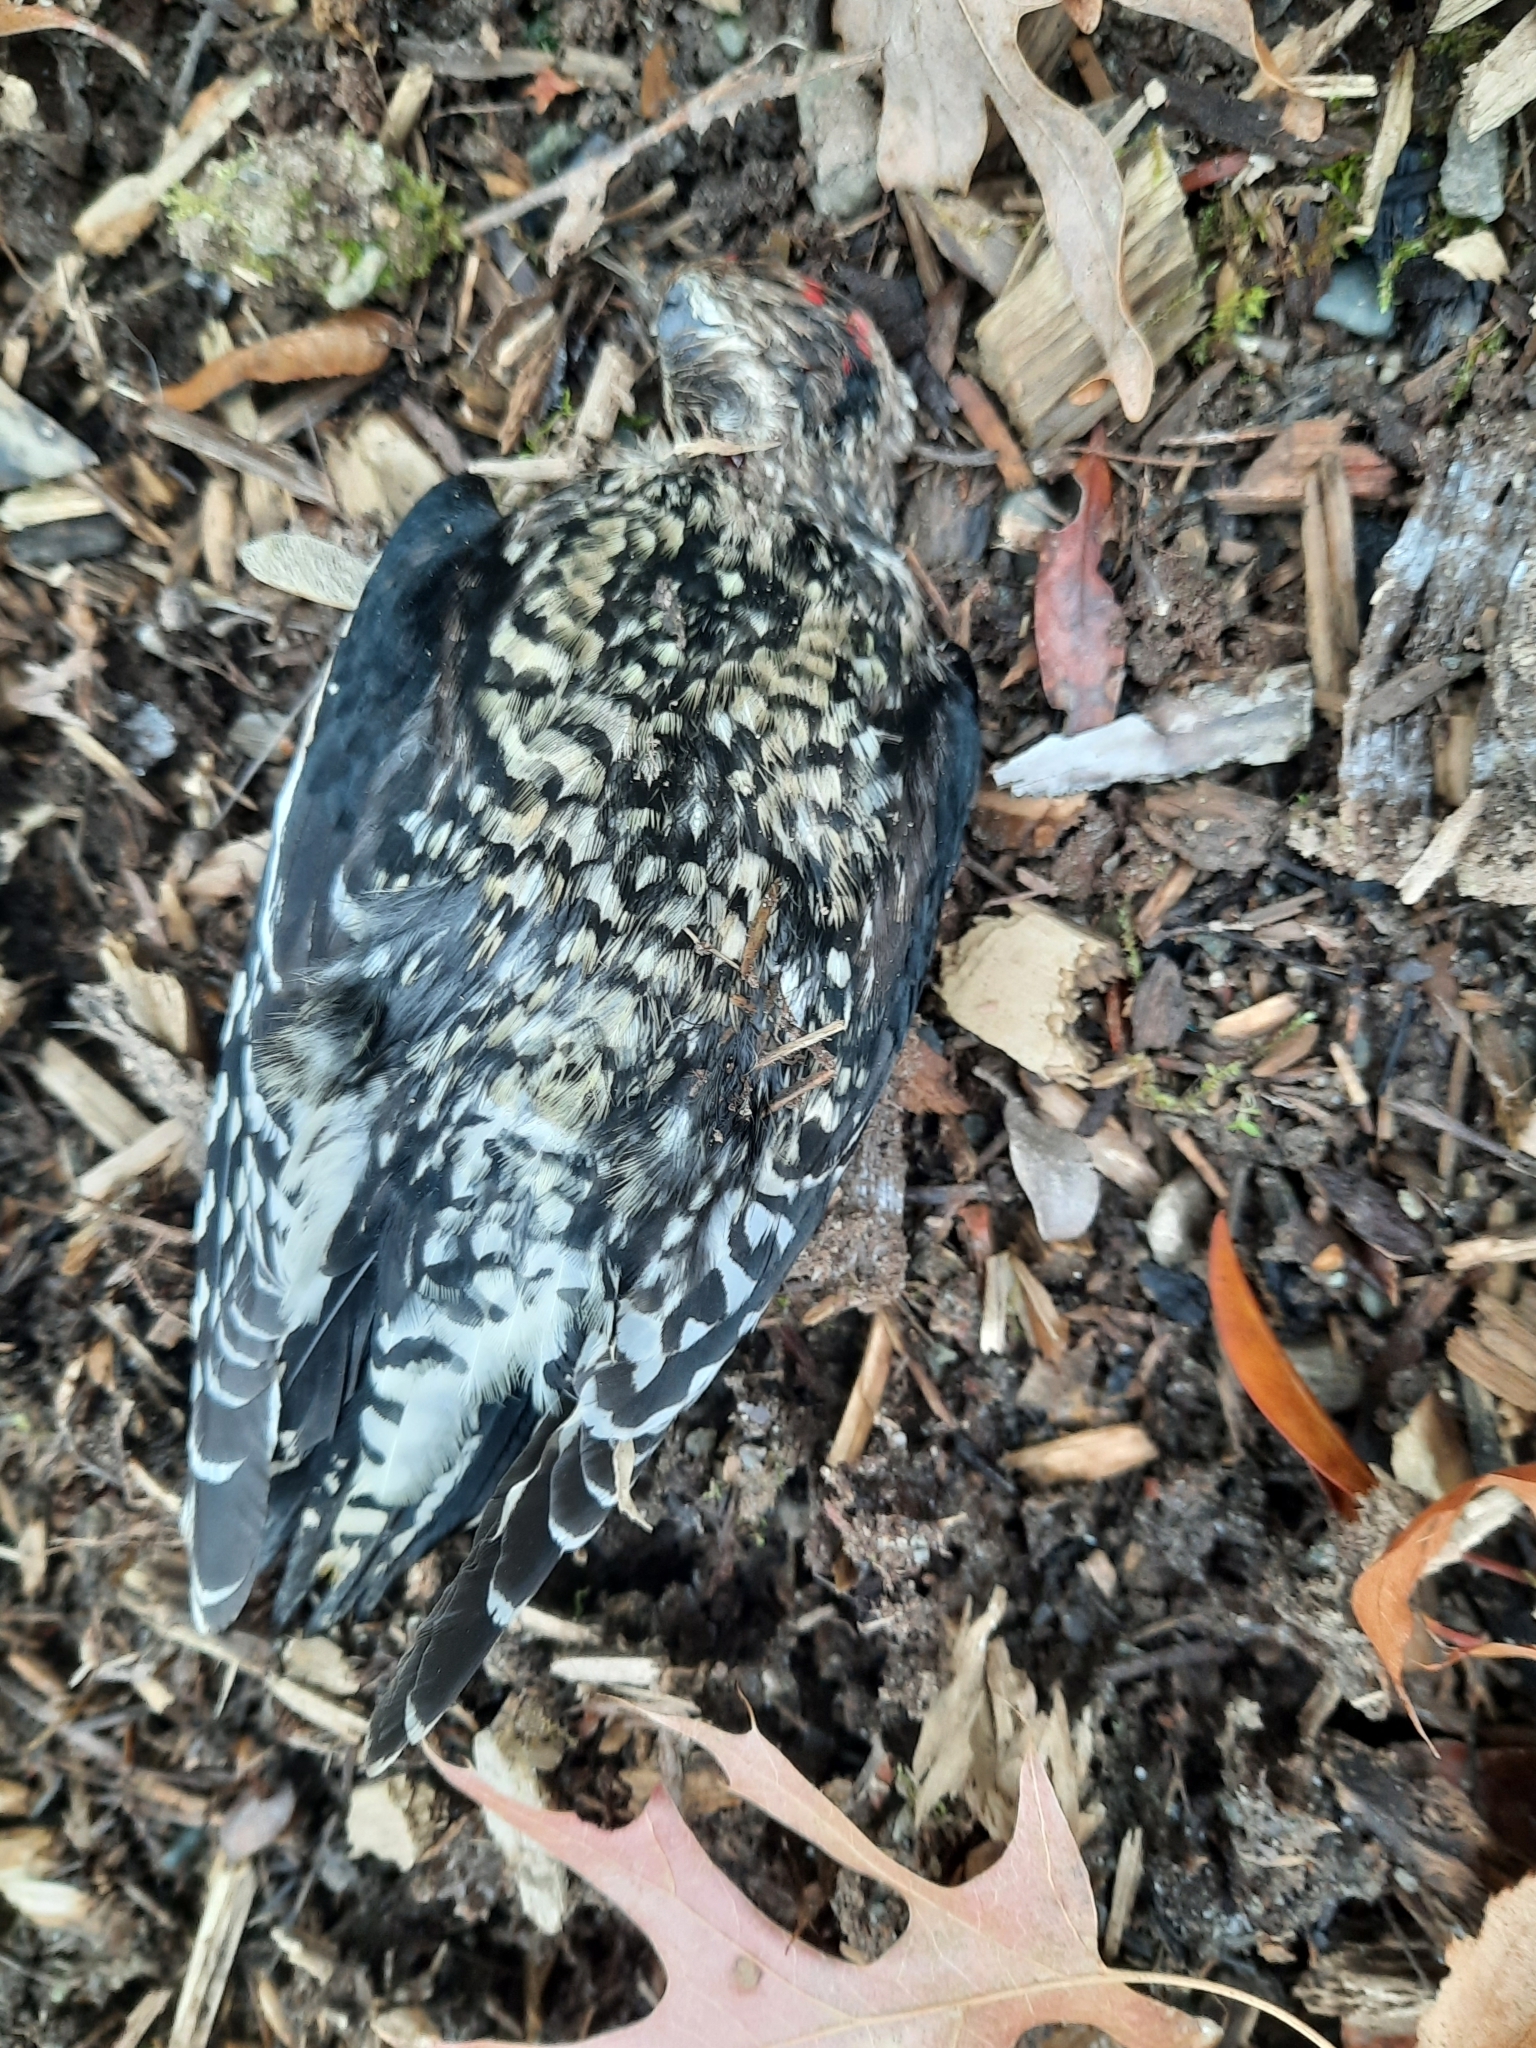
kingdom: Animalia
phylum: Chordata
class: Aves
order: Piciformes
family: Picidae
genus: Sphyrapicus
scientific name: Sphyrapicus varius
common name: Yellow-bellied sapsucker
